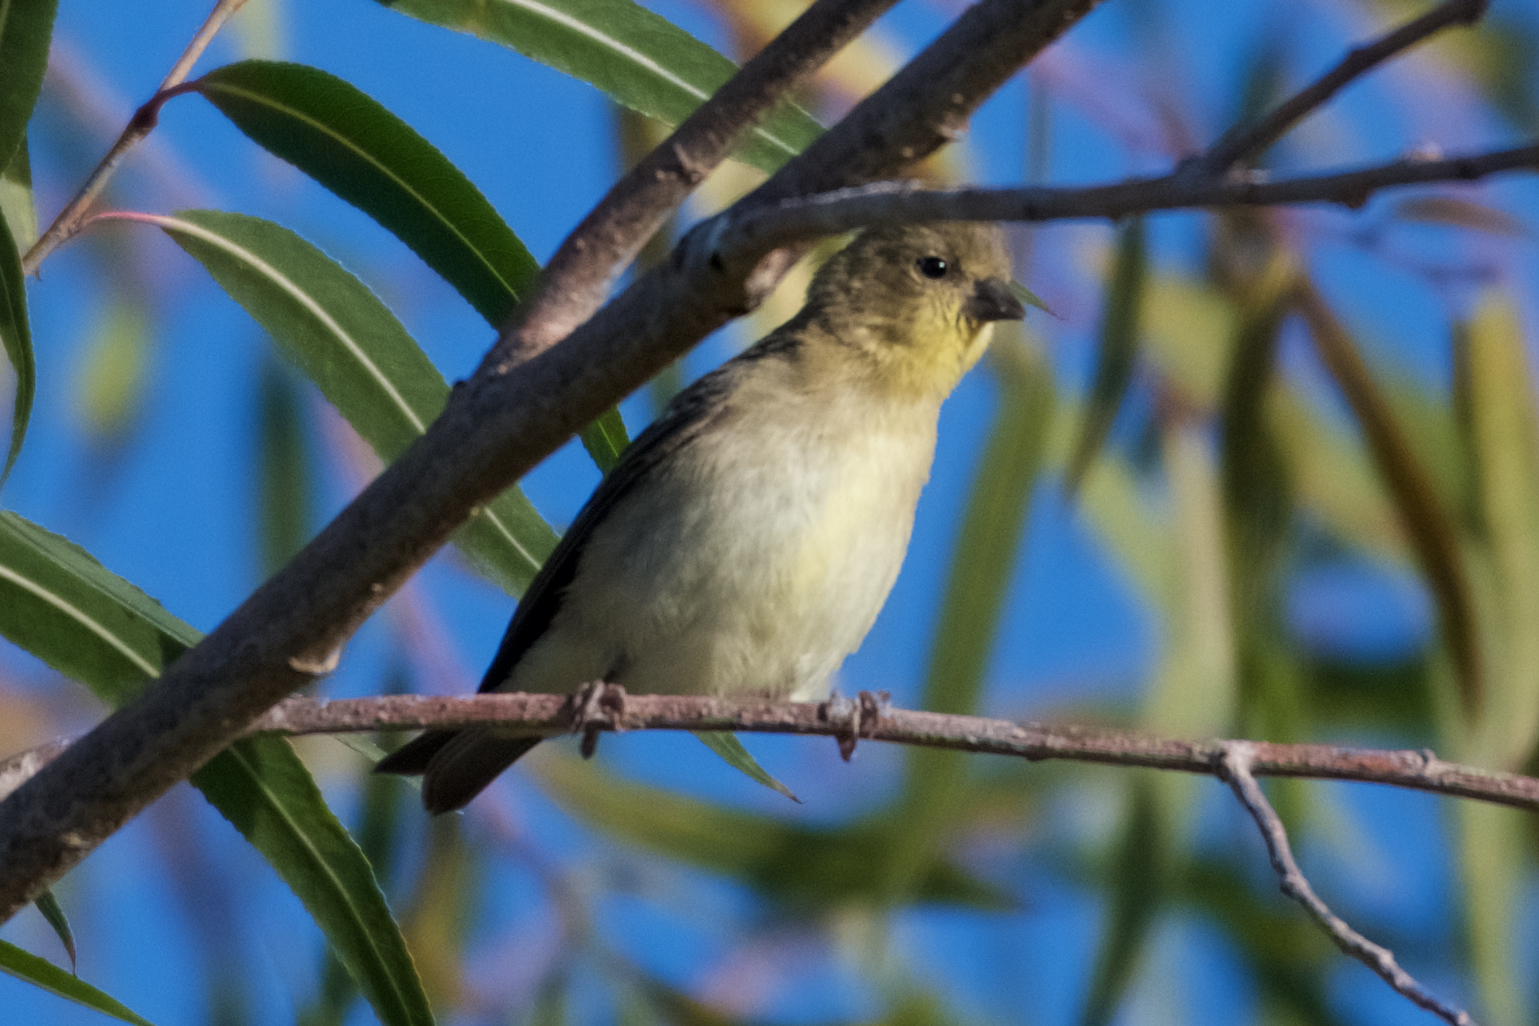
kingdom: Animalia
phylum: Chordata
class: Aves
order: Passeriformes
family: Fringillidae
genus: Spinus
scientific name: Spinus psaltria
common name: Lesser goldfinch
